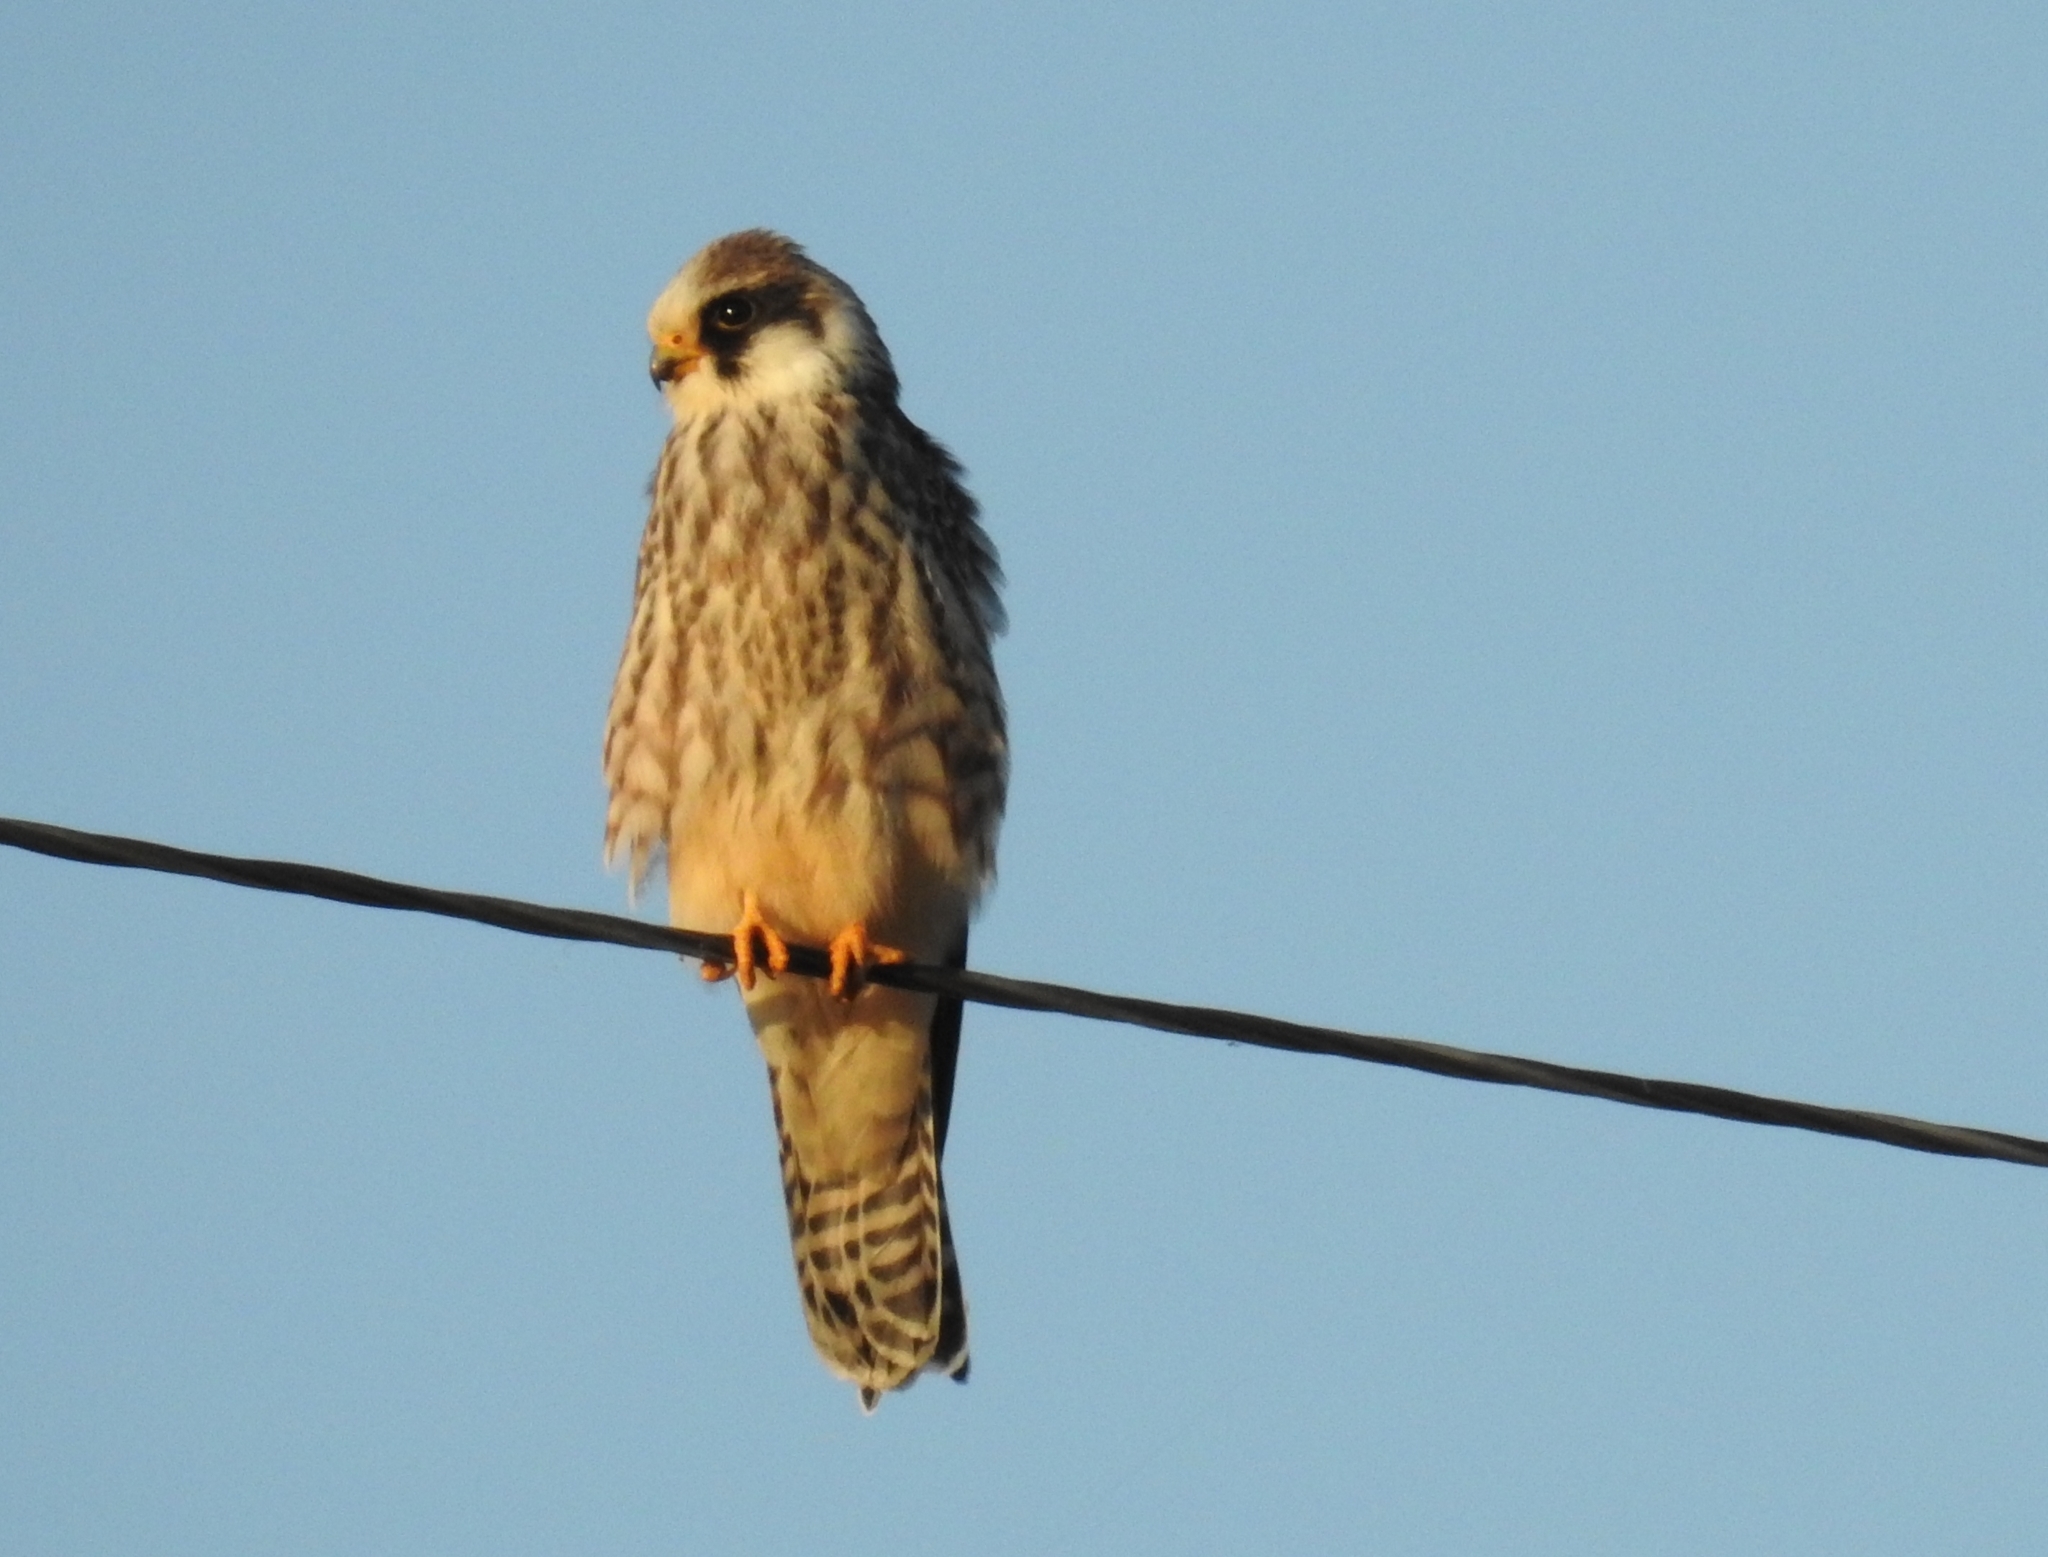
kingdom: Animalia
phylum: Chordata
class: Aves
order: Falconiformes
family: Falconidae
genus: Falco
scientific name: Falco vespertinus
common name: Red-footed falcon
